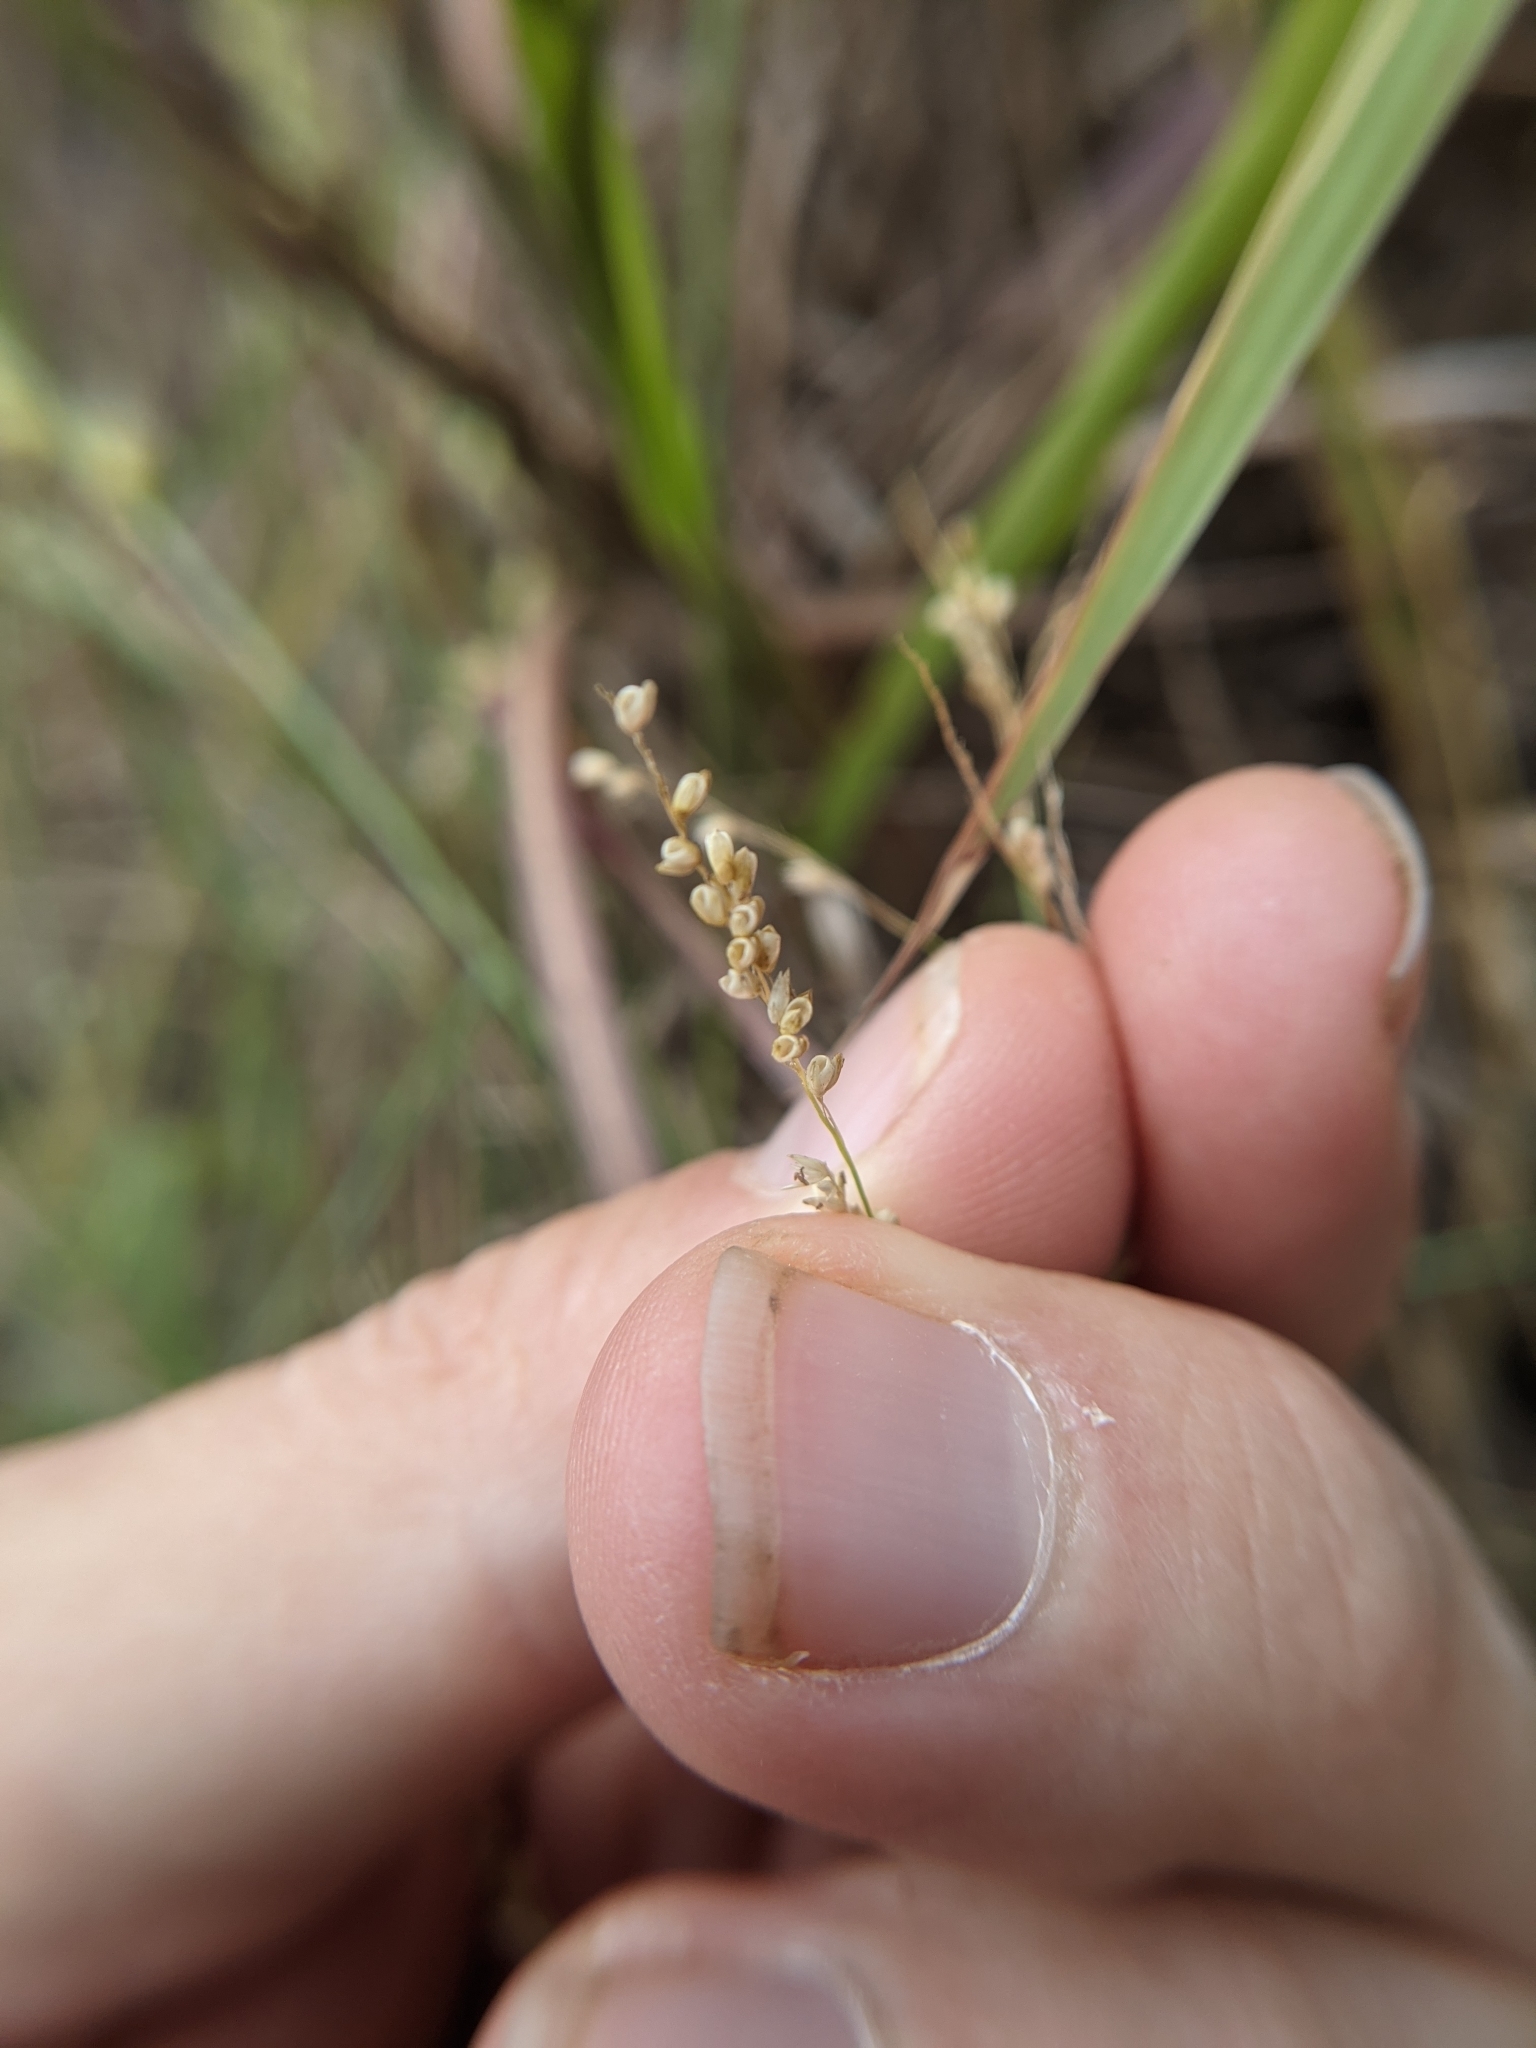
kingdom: Plantae
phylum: Tracheophyta
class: Liliopsida
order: Poales
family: Poaceae
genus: Steinchisma
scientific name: Steinchisma hians
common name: Gaping panic grass
